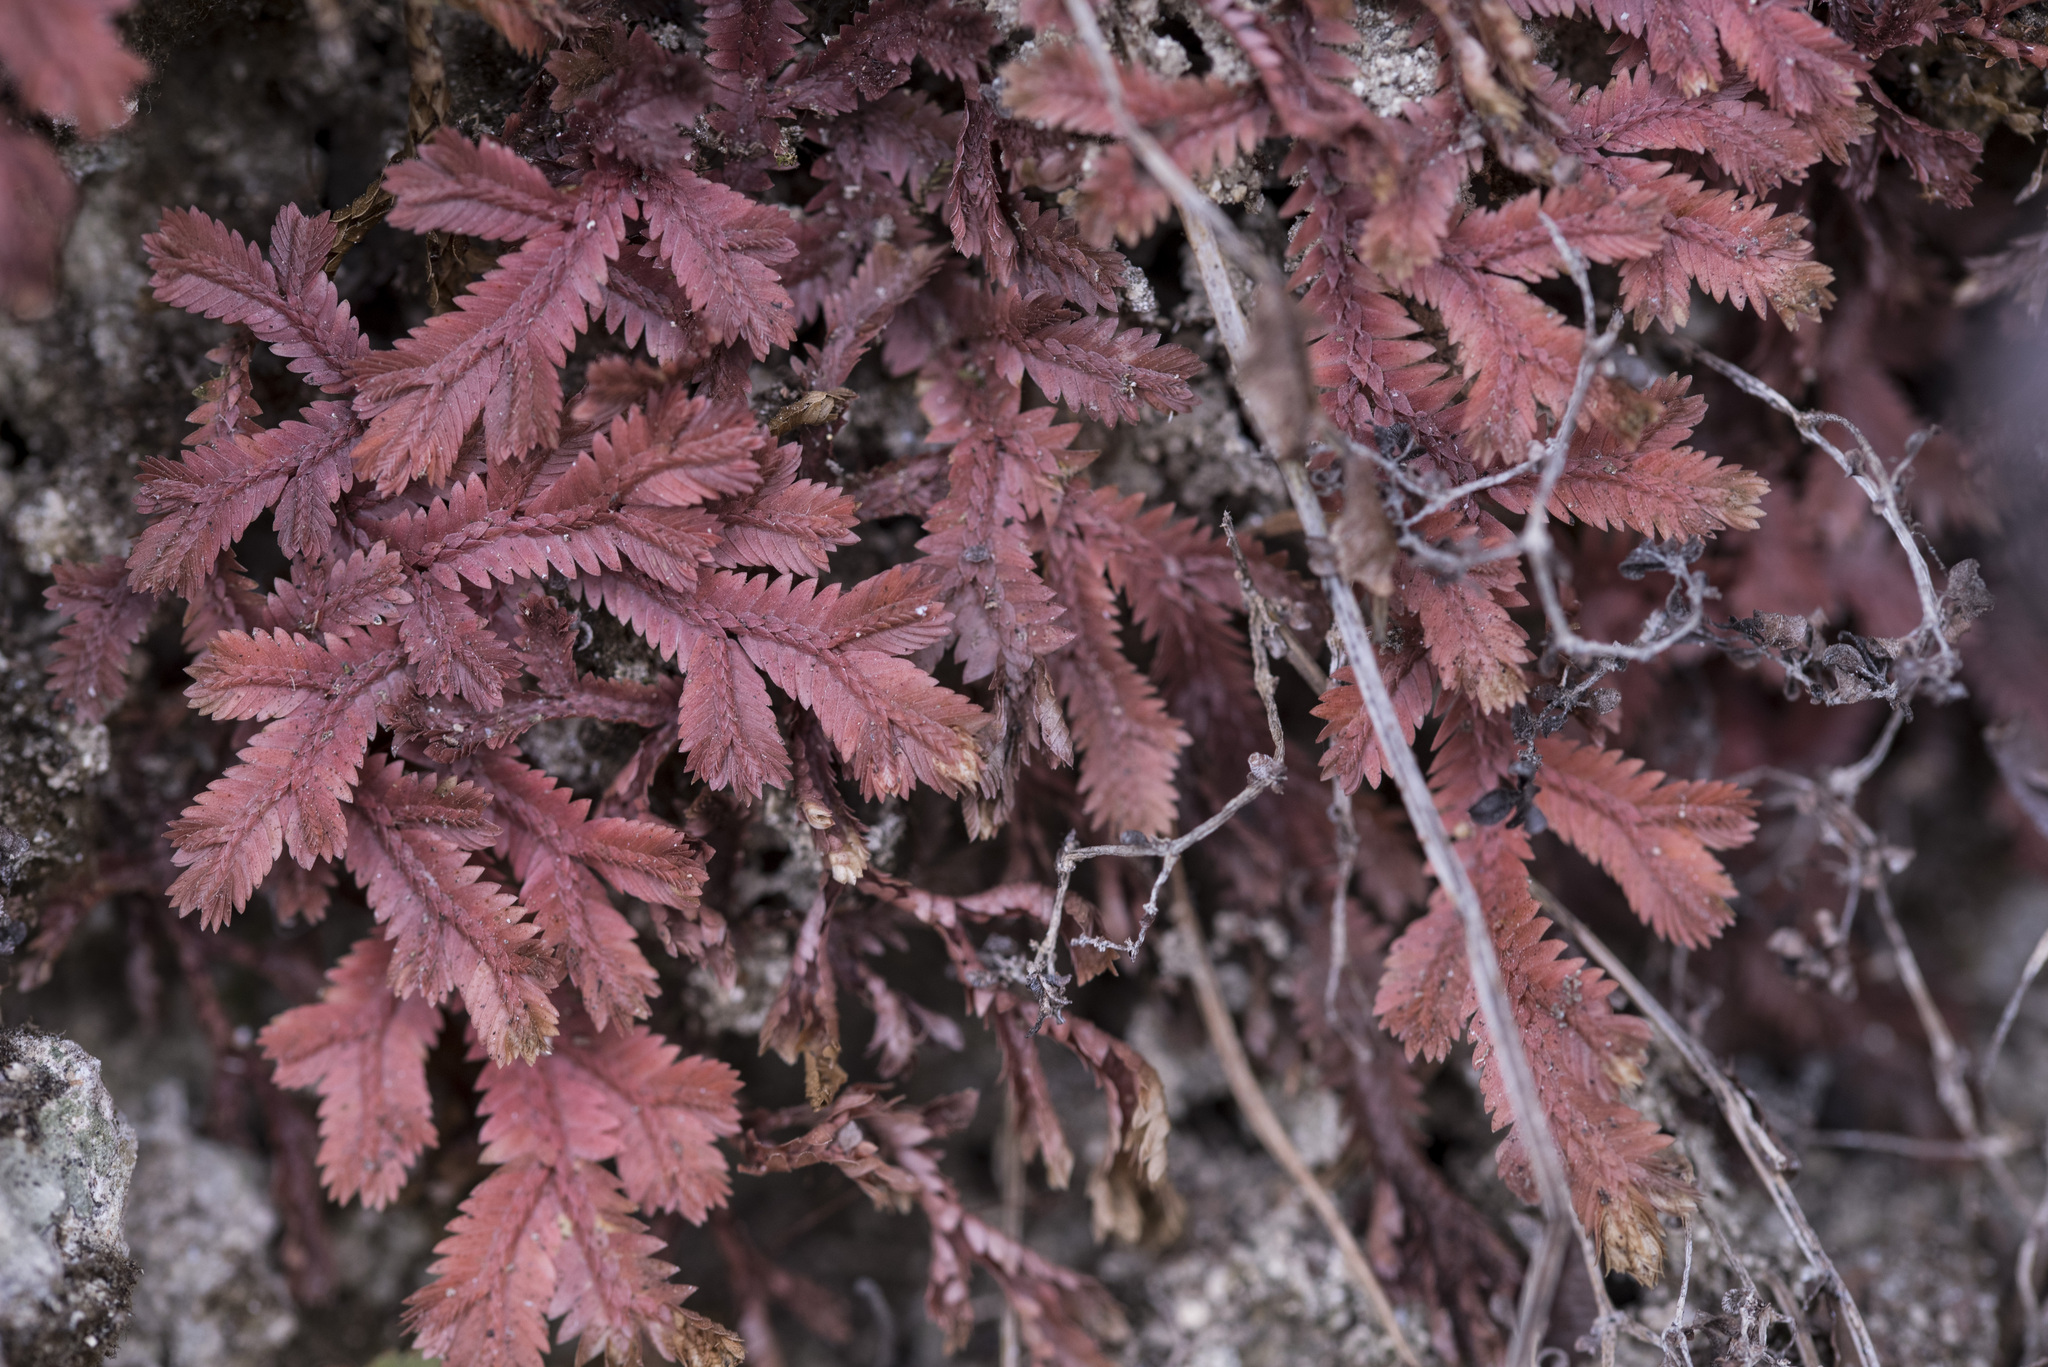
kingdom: Plantae
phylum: Tracheophyta
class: Lycopodiopsida
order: Selaginellales
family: Selaginellaceae
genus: Selaginella
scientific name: Selaginella repanda
